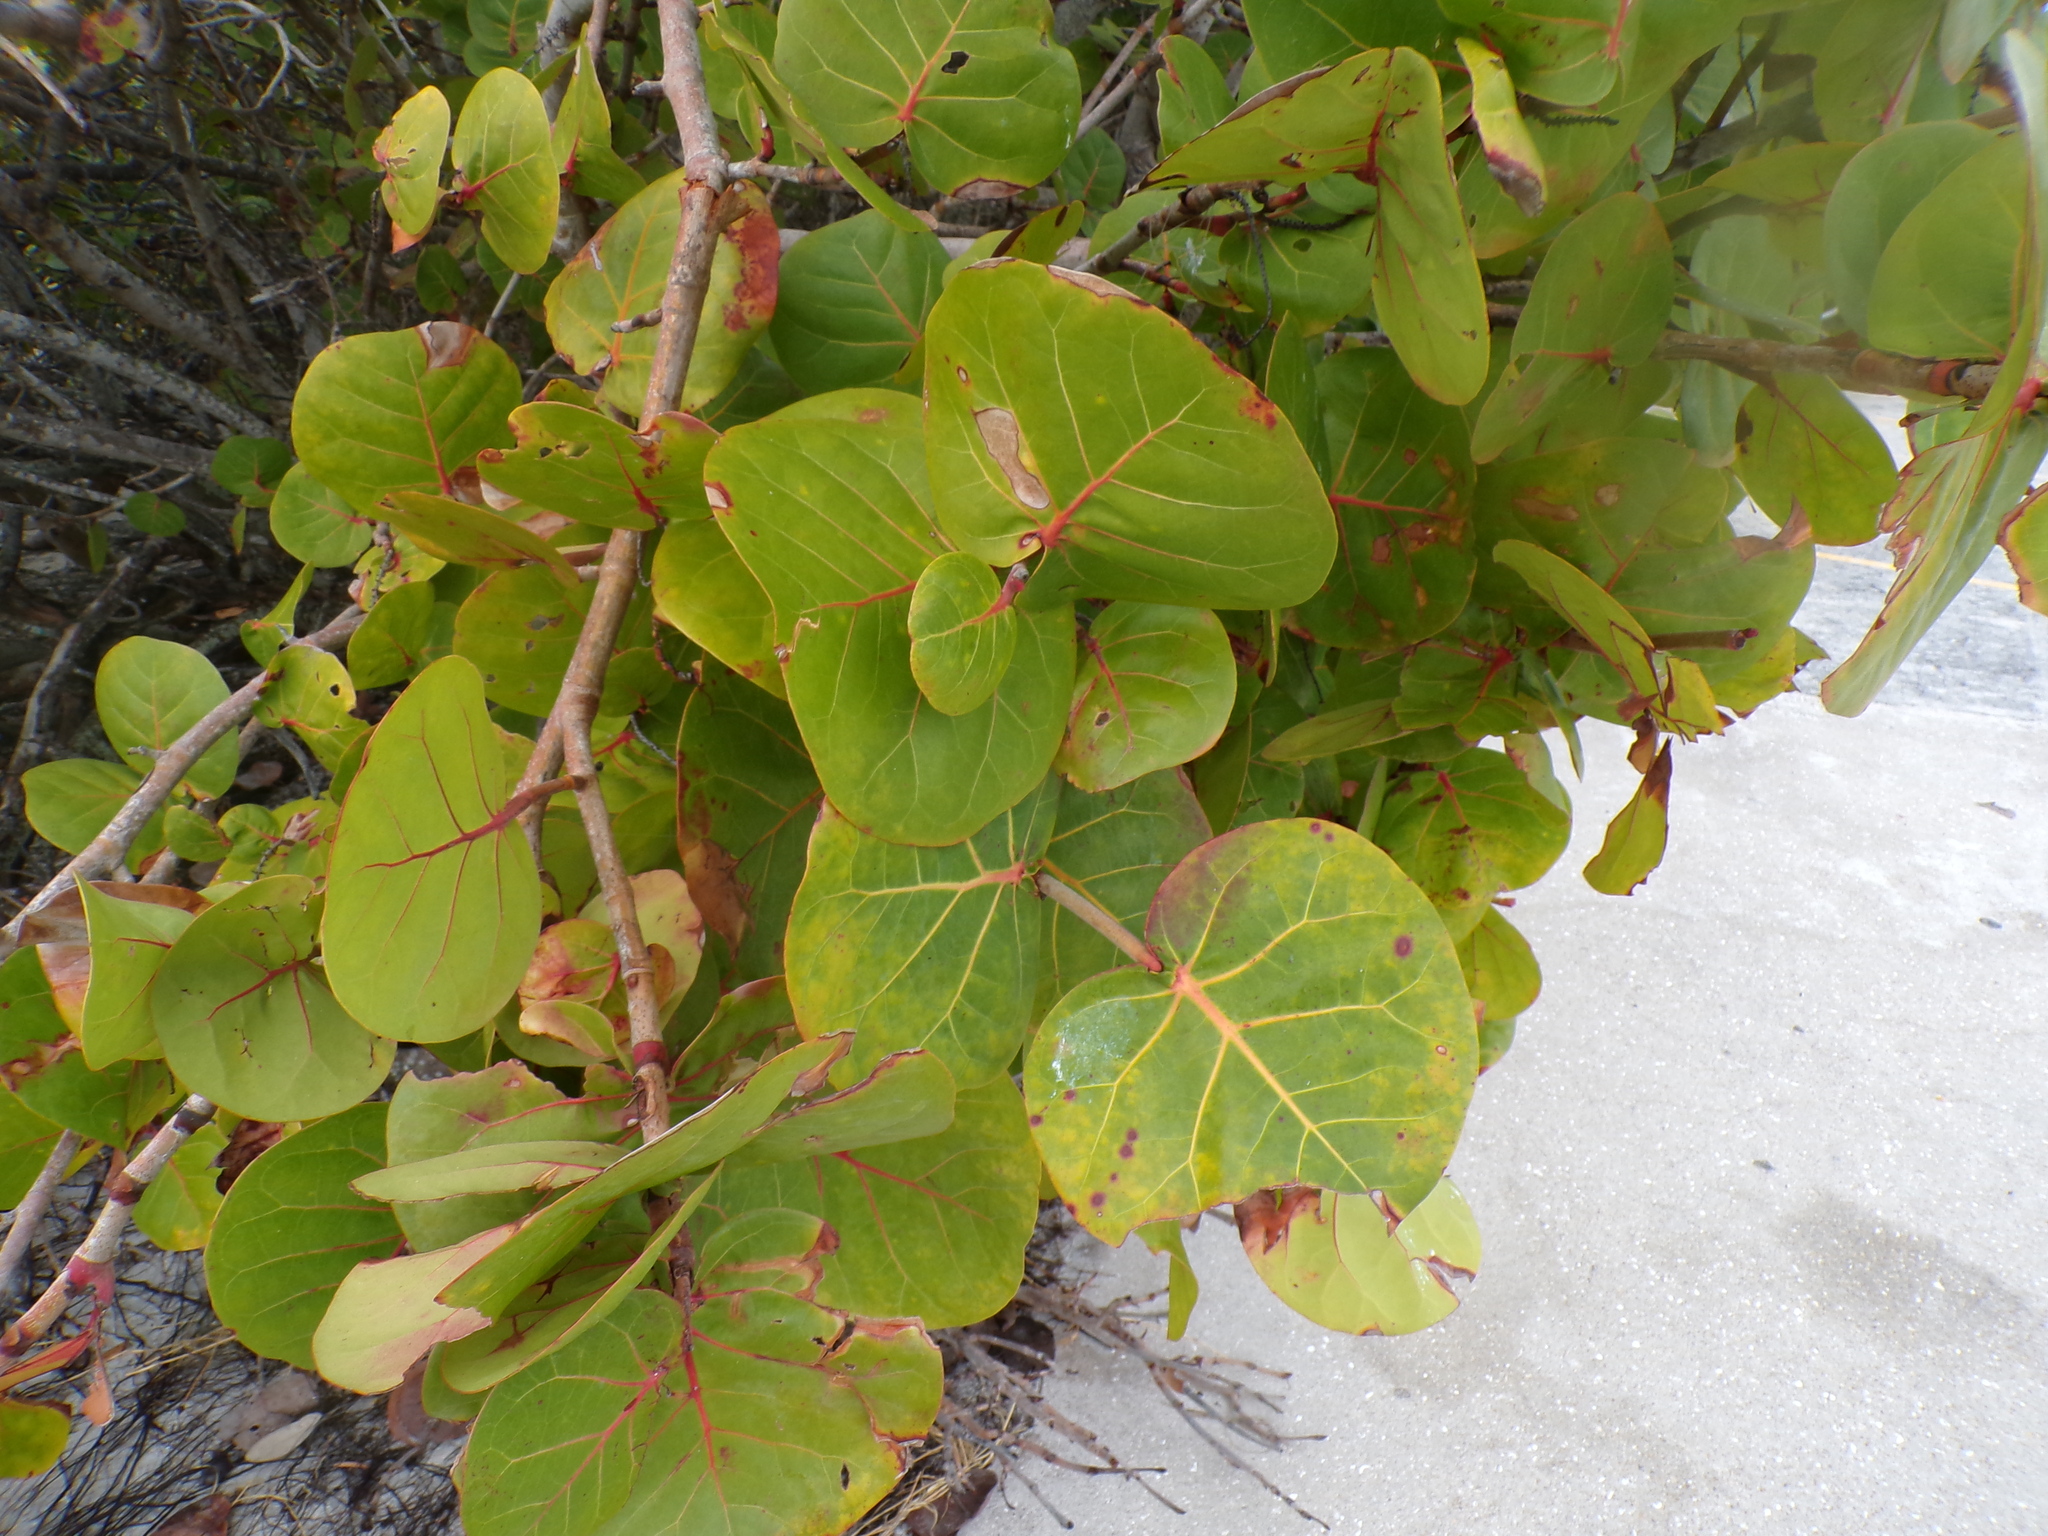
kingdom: Plantae
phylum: Tracheophyta
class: Magnoliopsida
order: Caryophyllales
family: Polygonaceae
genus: Coccoloba
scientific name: Coccoloba uvifera
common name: Seagrape
